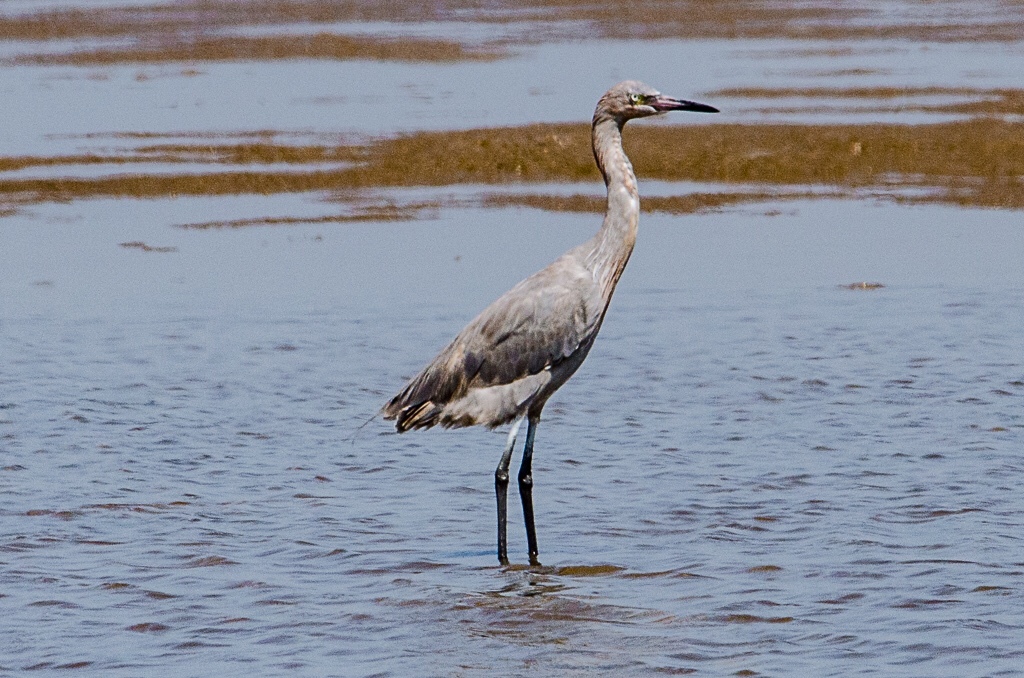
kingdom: Animalia
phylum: Chordata
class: Aves
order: Pelecaniformes
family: Ardeidae
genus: Egretta
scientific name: Egretta rufescens
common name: Reddish egret
